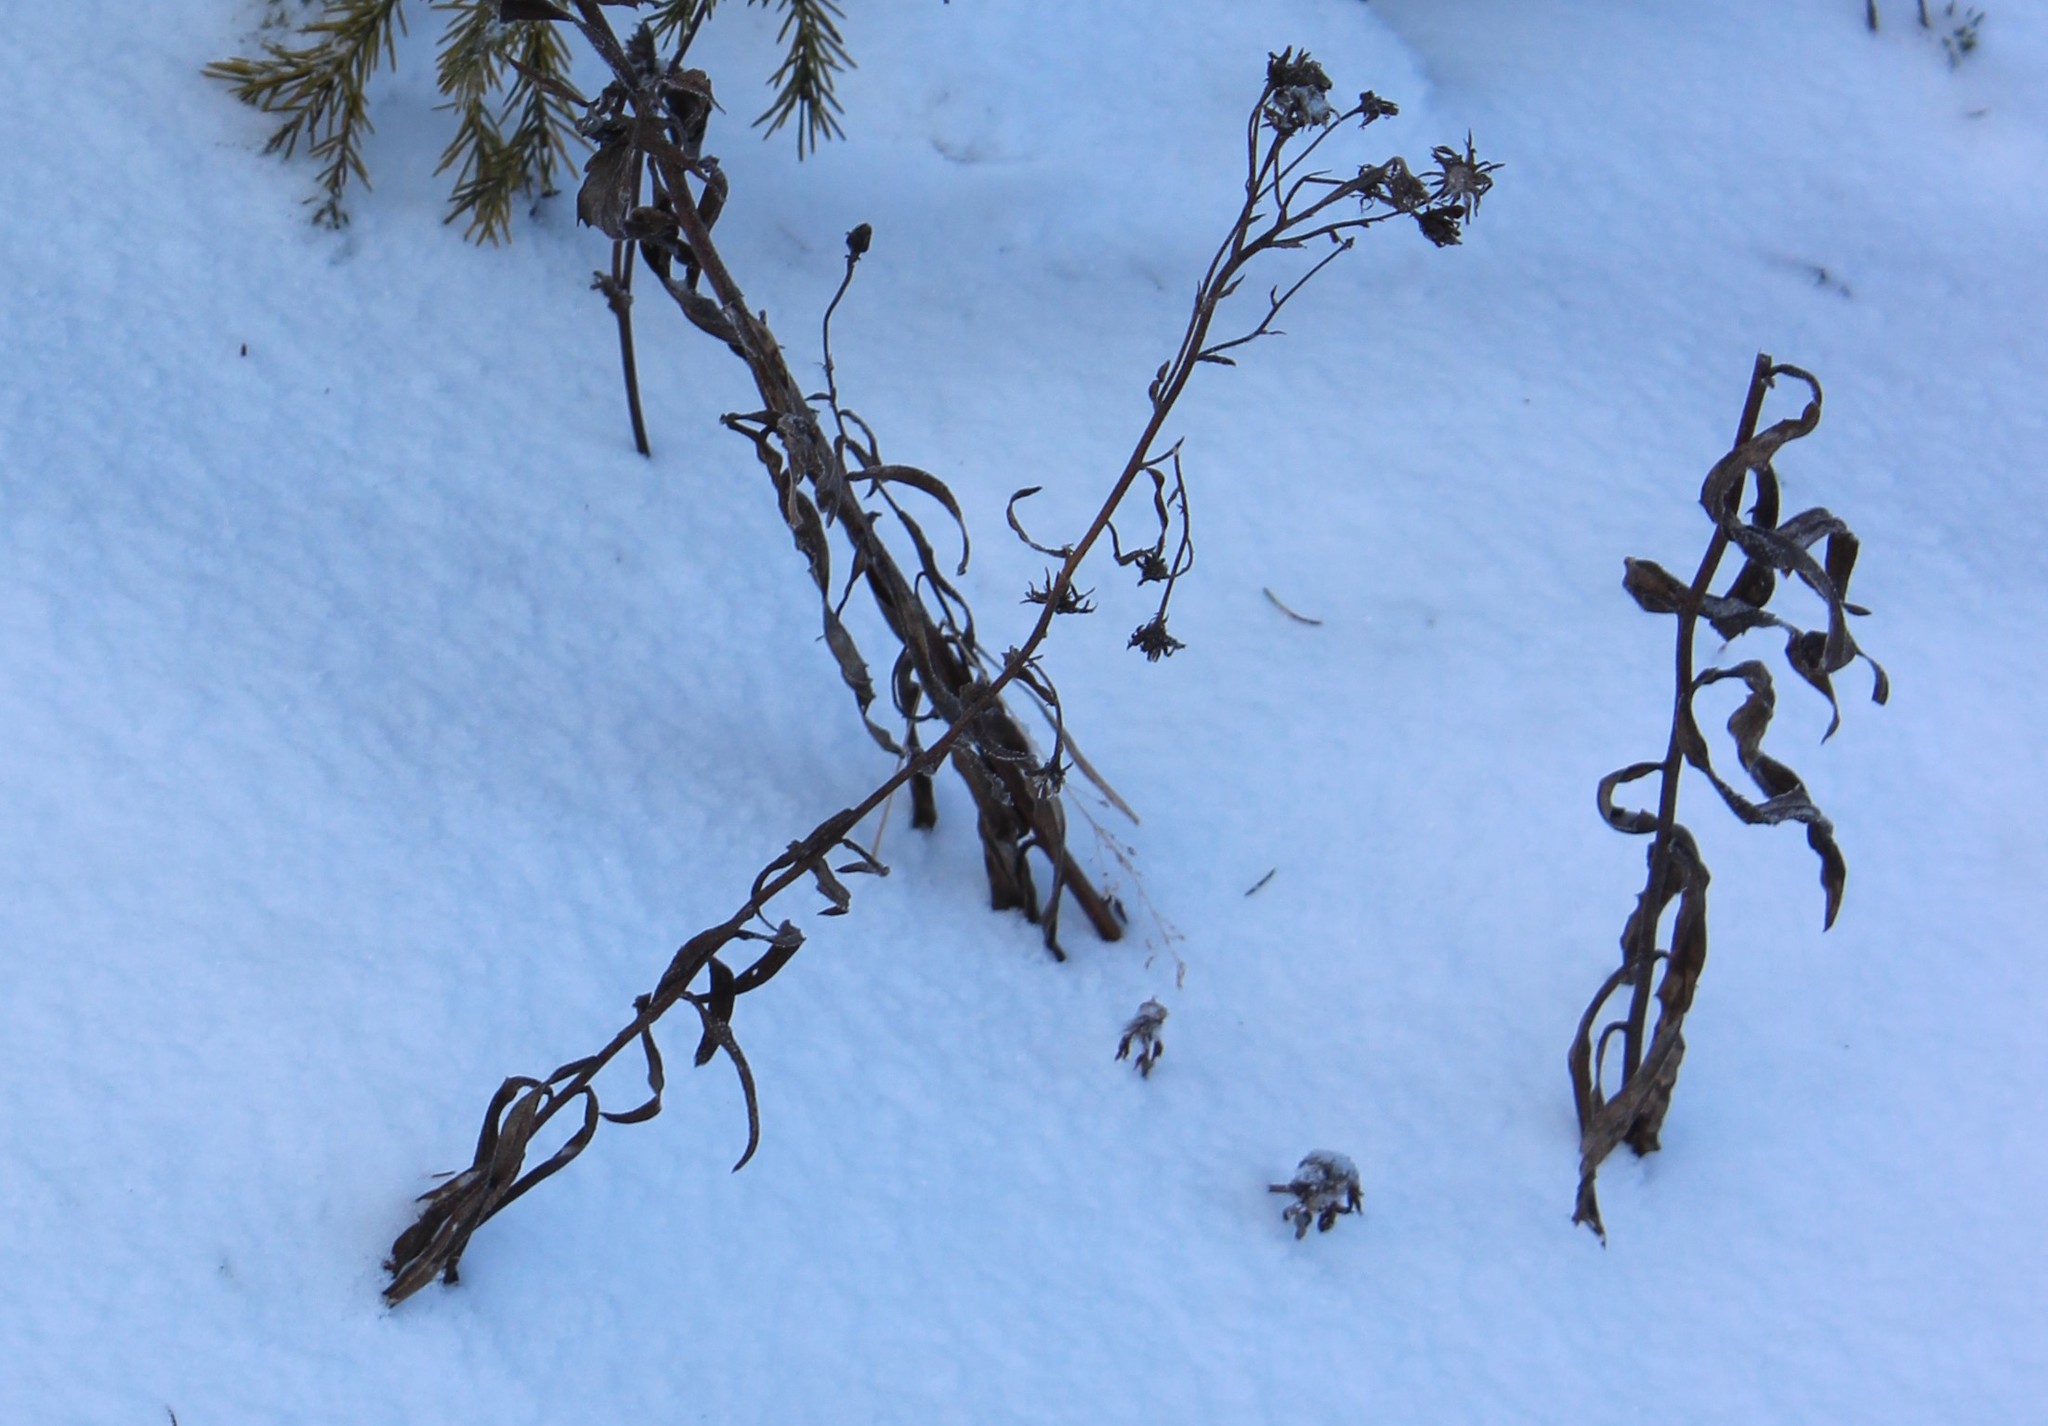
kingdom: Plantae
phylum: Tracheophyta
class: Magnoliopsida
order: Asterales
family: Asteraceae
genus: Hieracium
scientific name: Hieracium umbellatum
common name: Northern hawkweed
